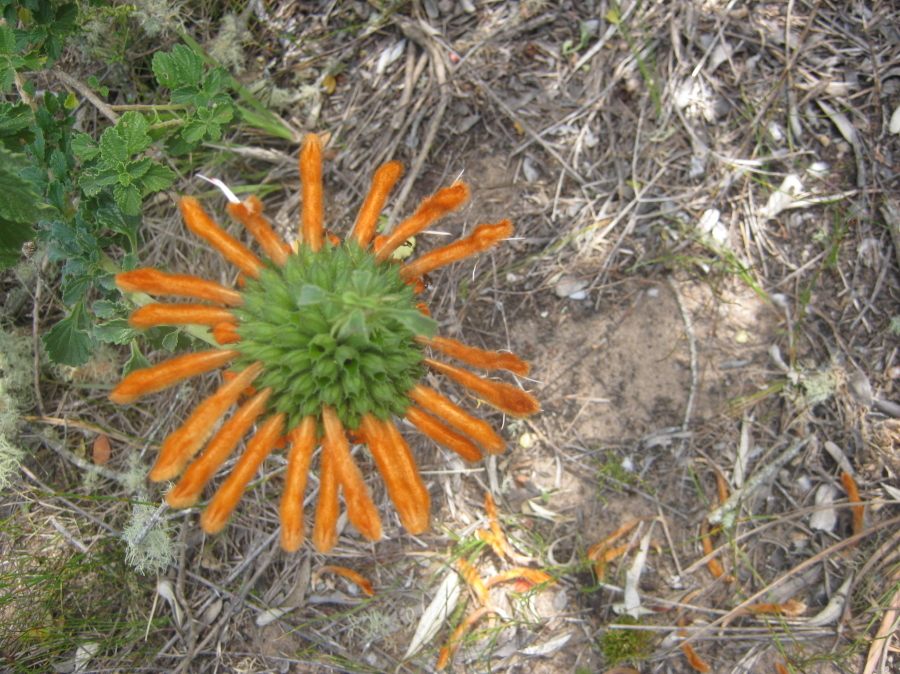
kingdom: Plantae
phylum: Tracheophyta
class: Magnoliopsida
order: Lamiales
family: Lamiaceae
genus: Leonotis
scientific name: Leonotis ocymifolia
